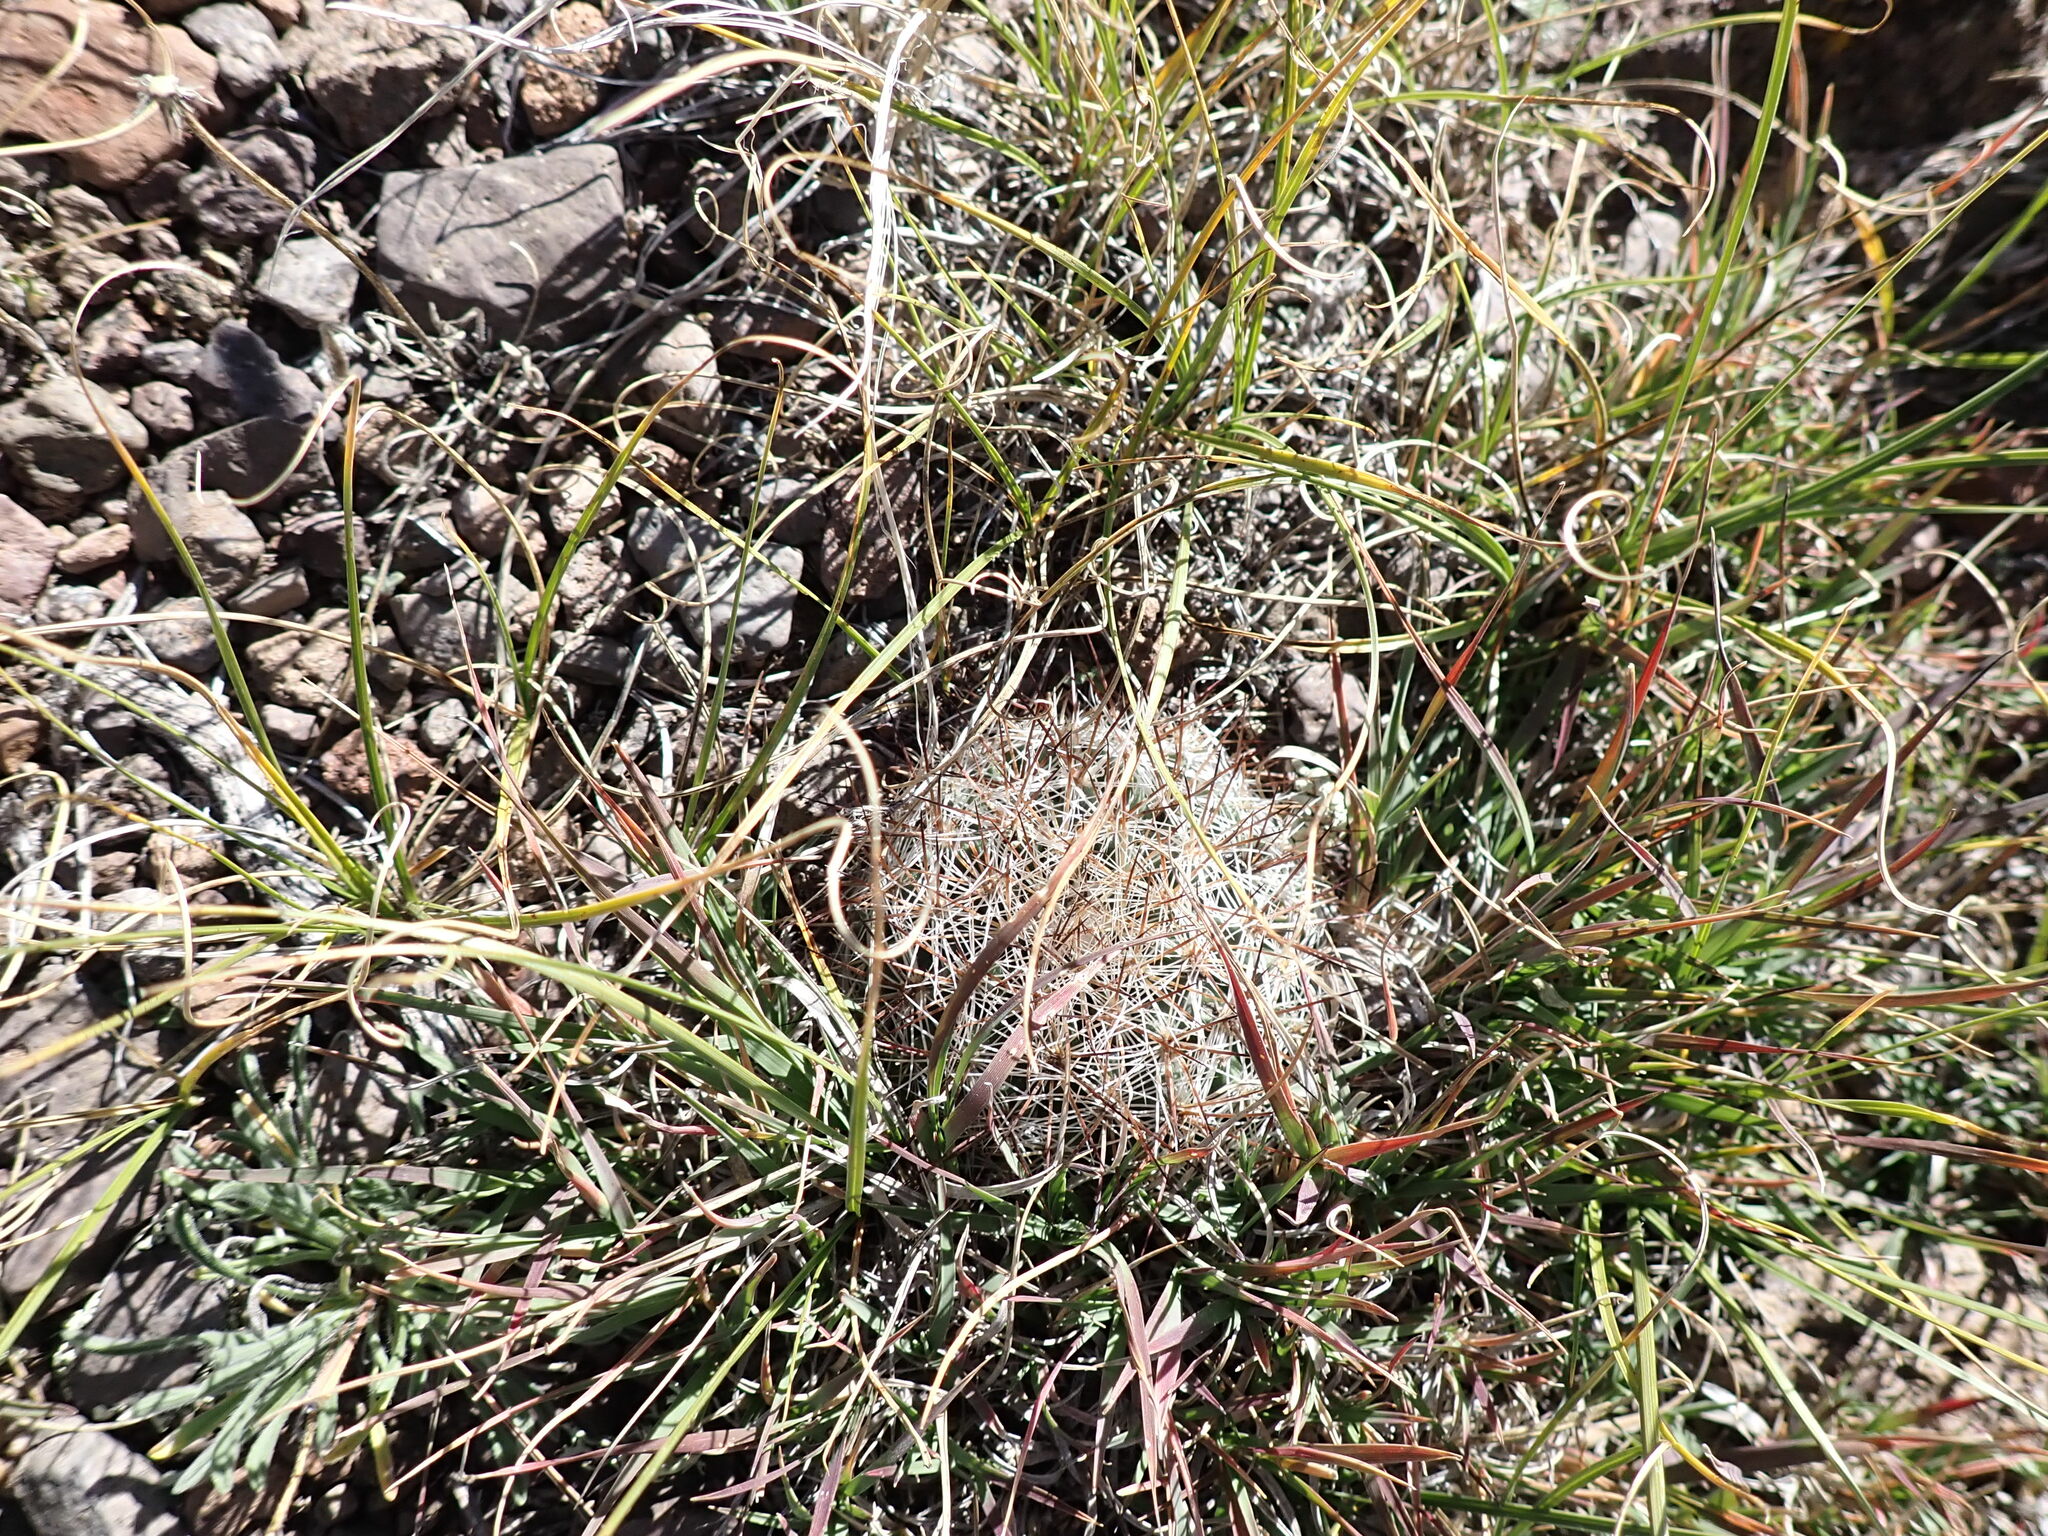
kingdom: Plantae
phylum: Tracheophyta
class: Magnoliopsida
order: Caryophyllales
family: Cactaceae
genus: Pediocactus
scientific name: Pediocactus simpsonii
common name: Simpson's hedgehog cactus
